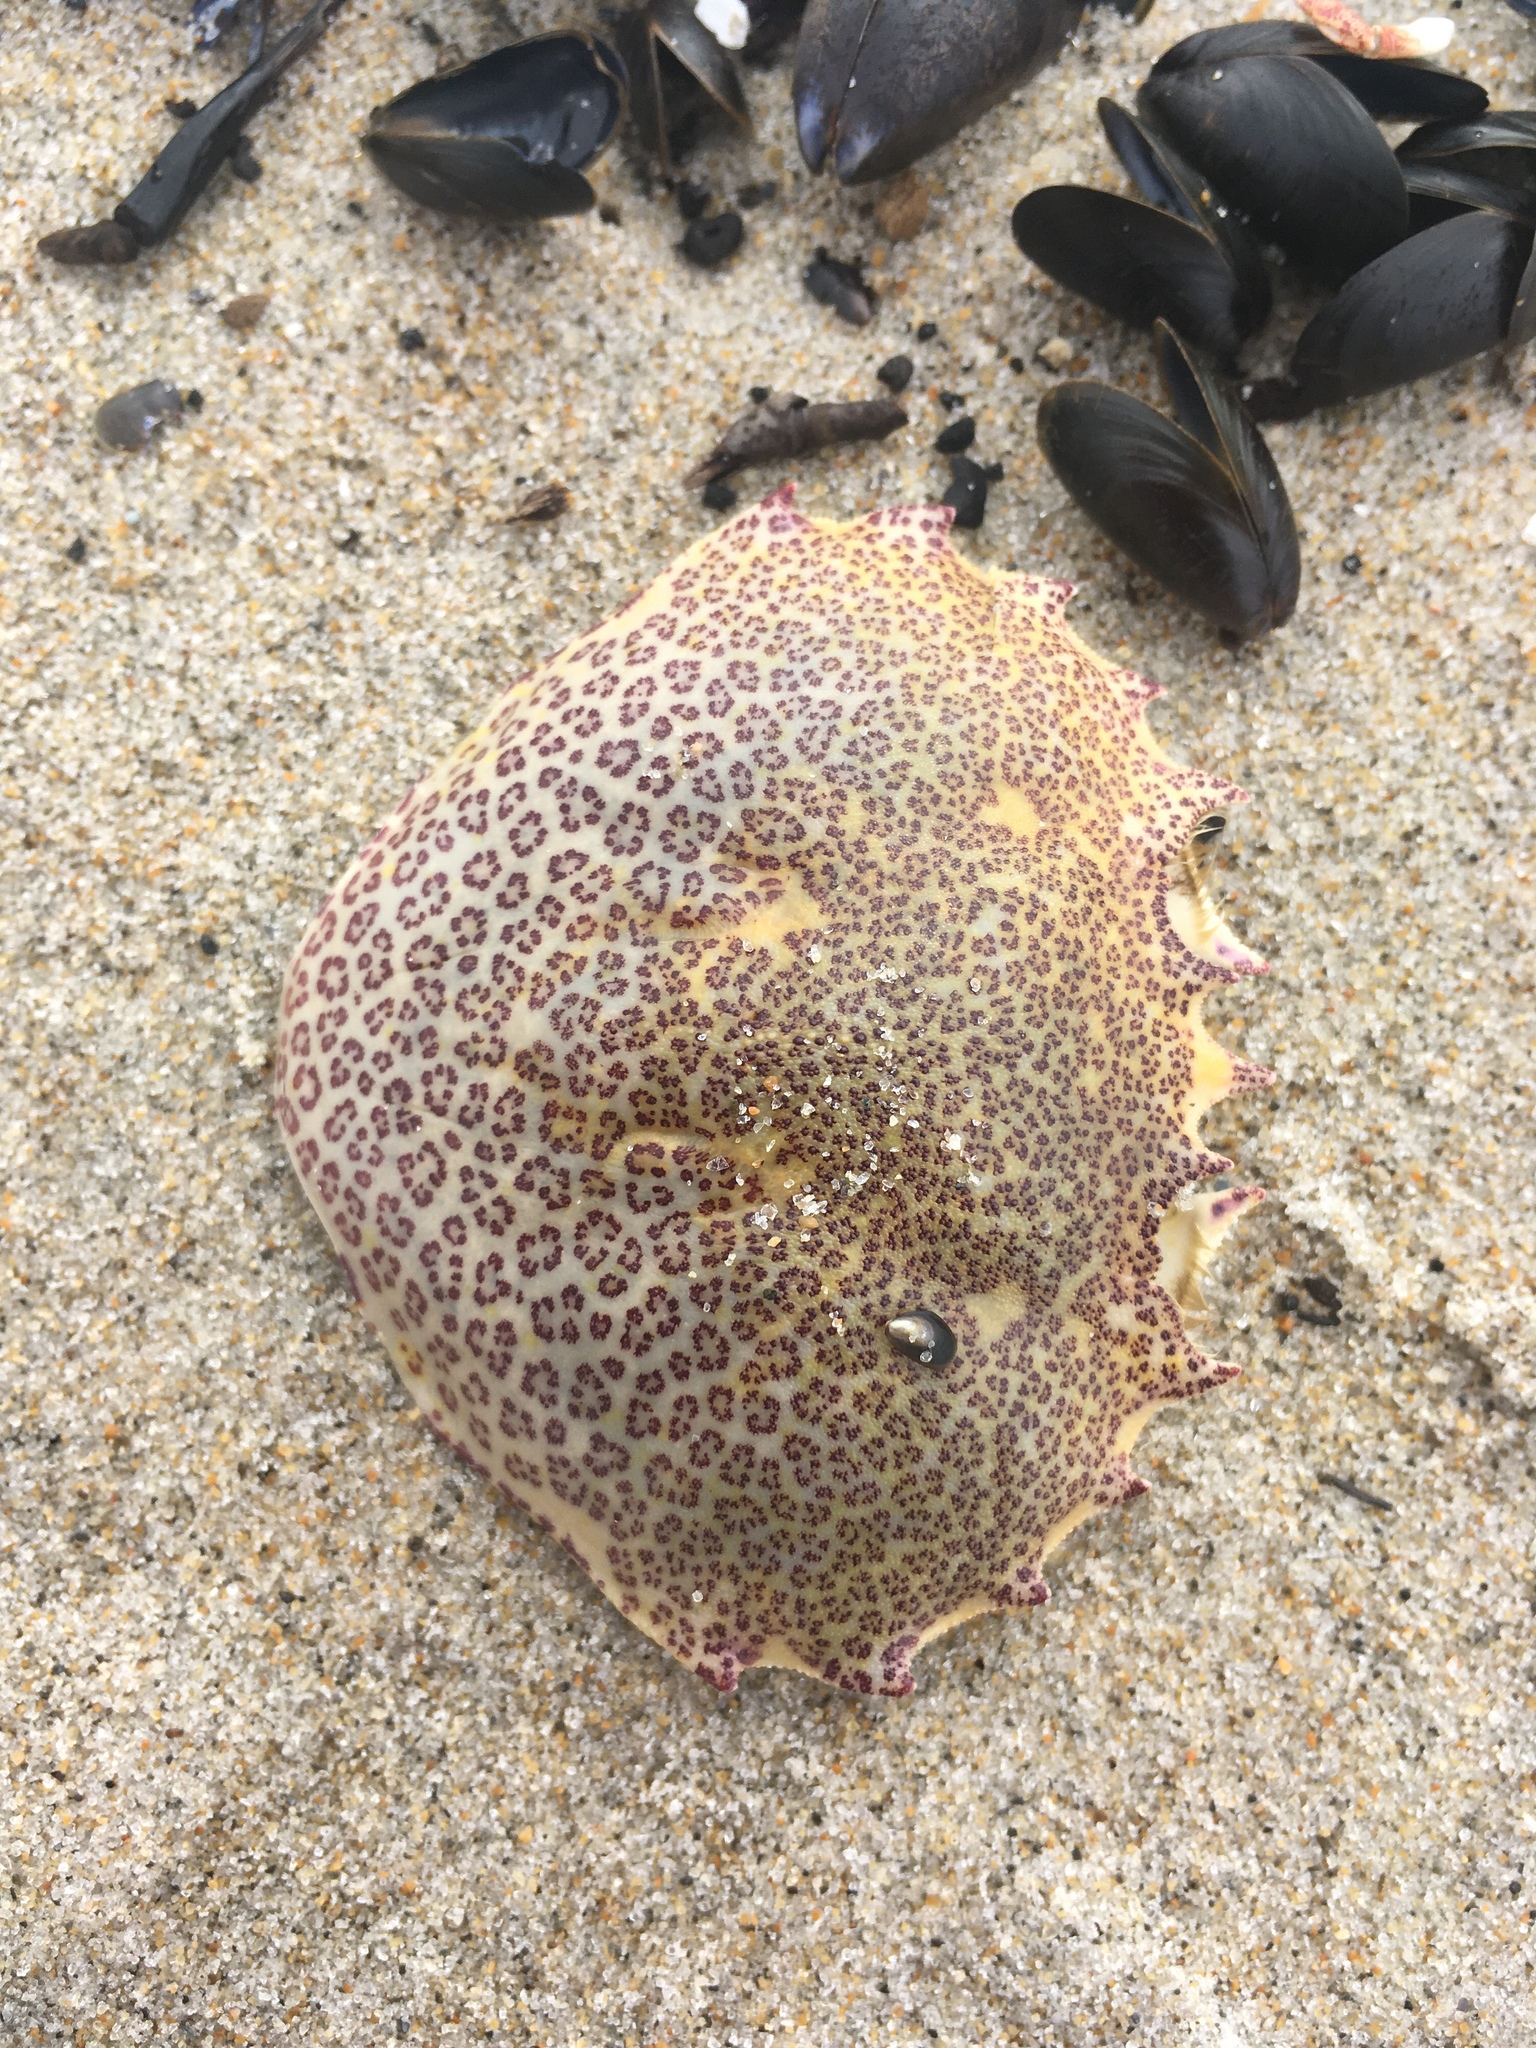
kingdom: Animalia
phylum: Arthropoda
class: Malacostraca
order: Decapoda
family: Ovalipidae
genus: Ovalipes
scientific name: Ovalipes ocellatus
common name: Lady crab
